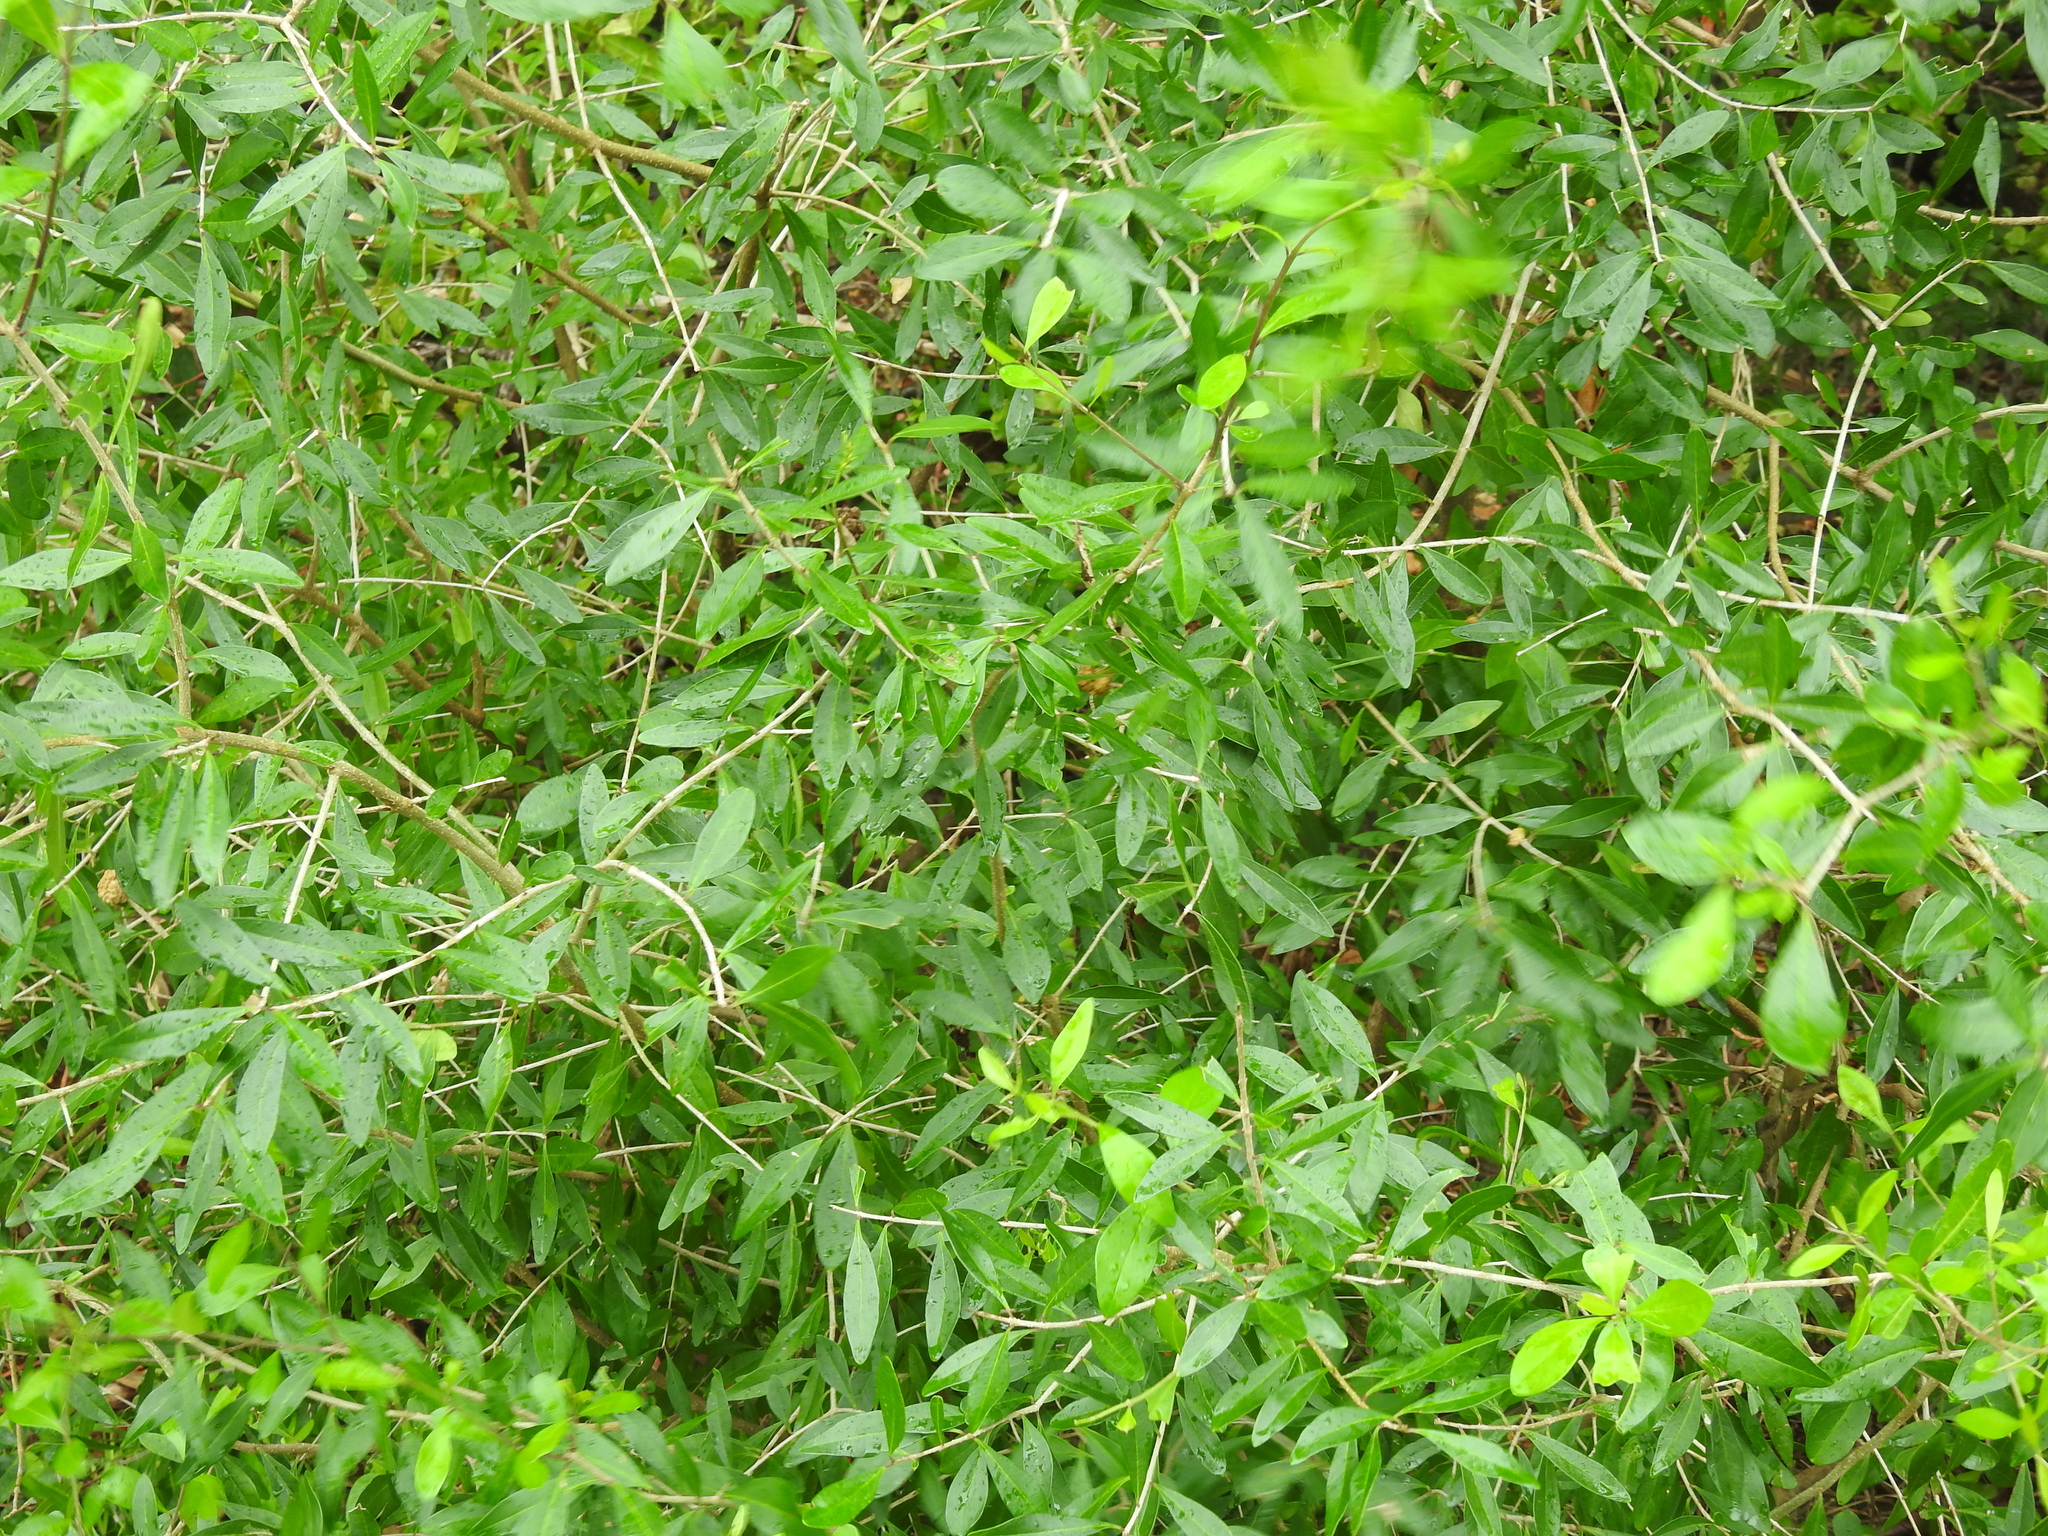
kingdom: Plantae
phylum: Tracheophyta
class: Magnoliopsida
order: Lamiales
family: Oleaceae
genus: Forestiera
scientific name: Forestiera segregata
